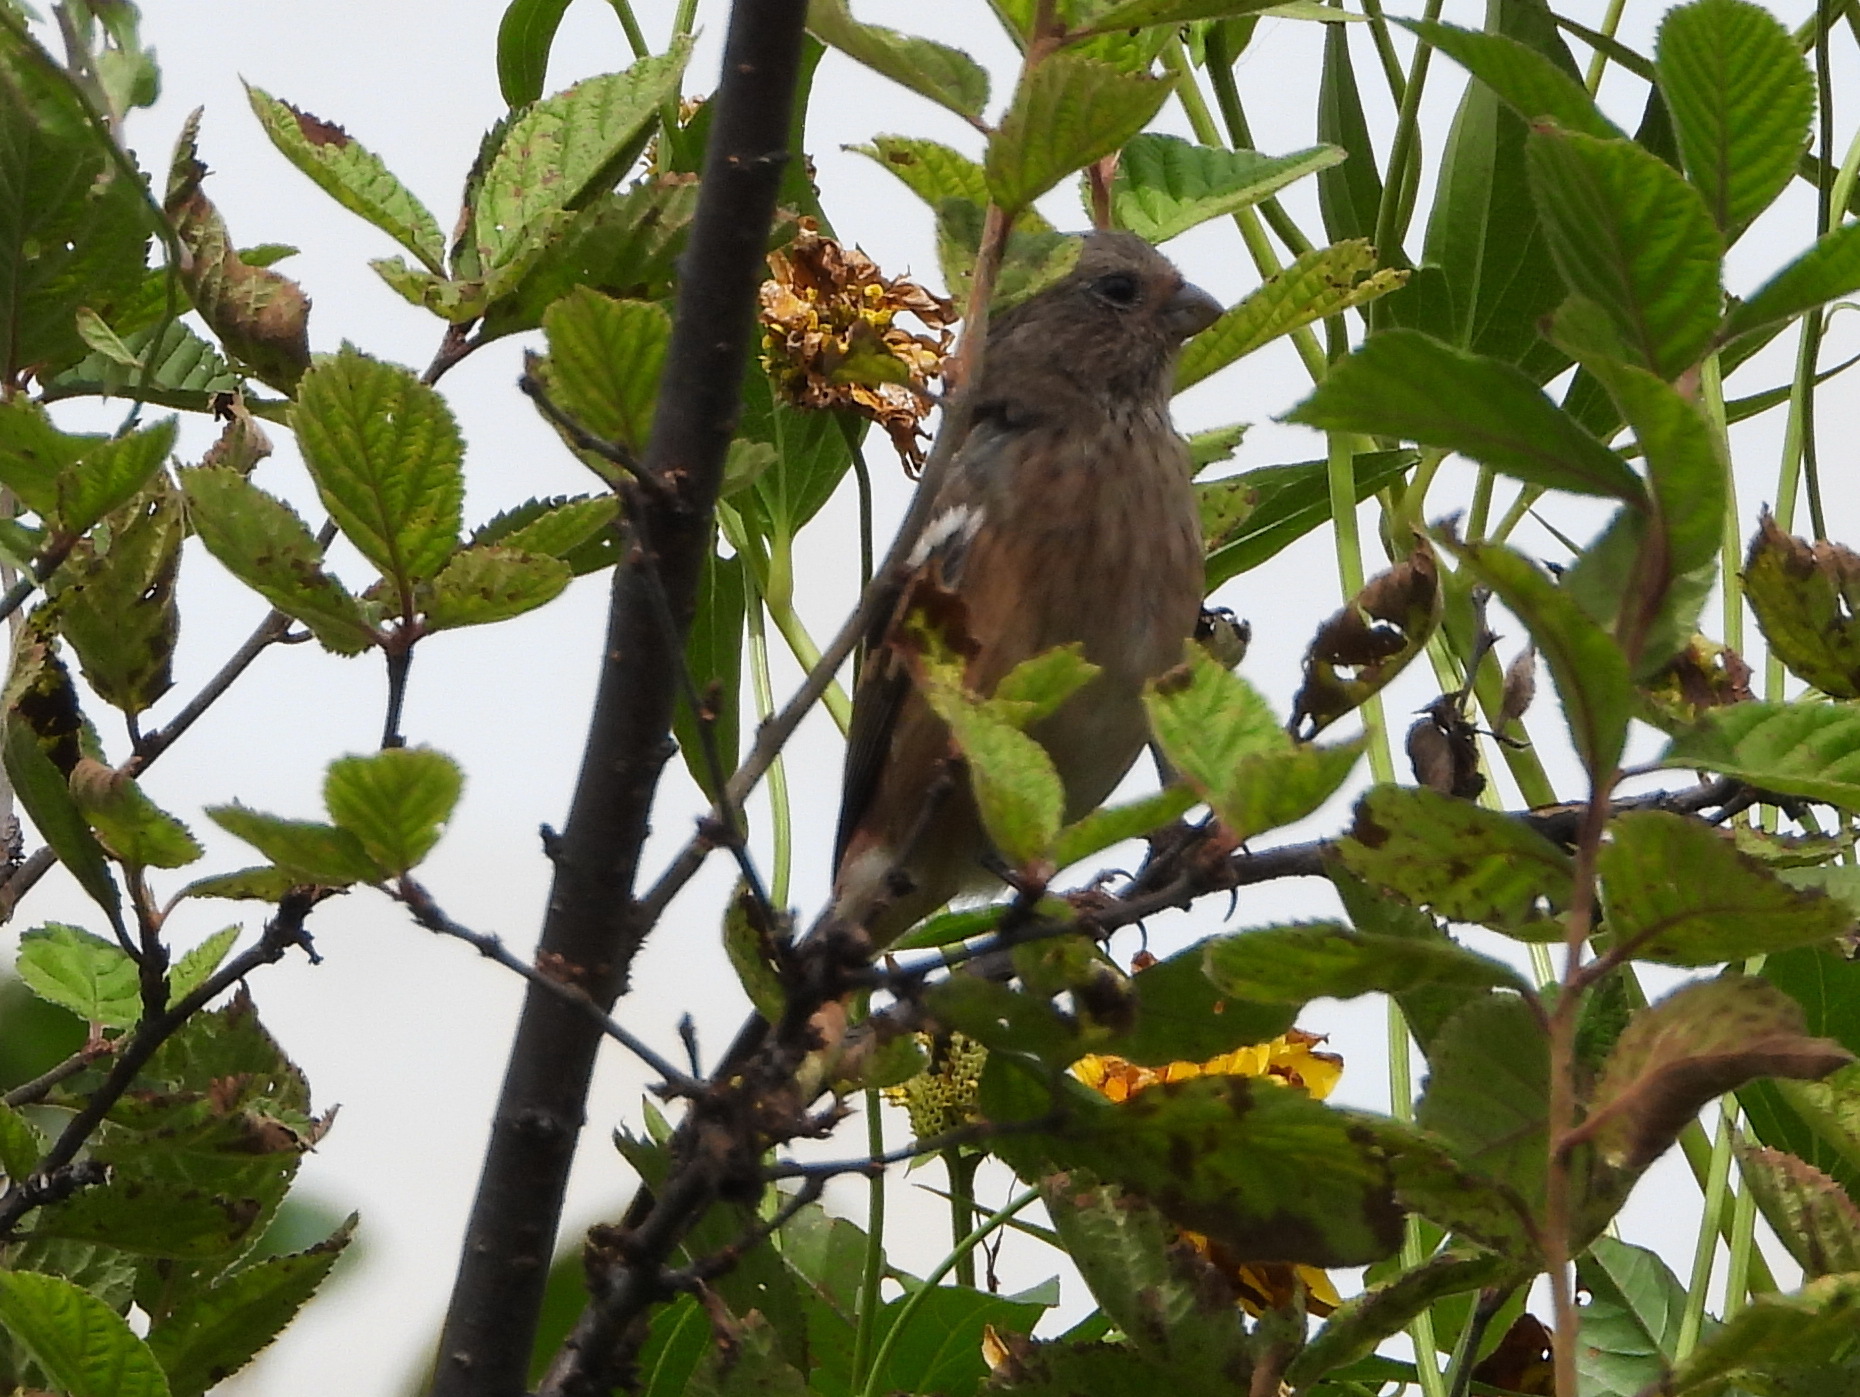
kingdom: Animalia
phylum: Chordata
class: Aves
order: Passeriformes
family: Fringillidae
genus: Carpodacus
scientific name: Carpodacus sibiricus
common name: Long-tailed rosefinch
